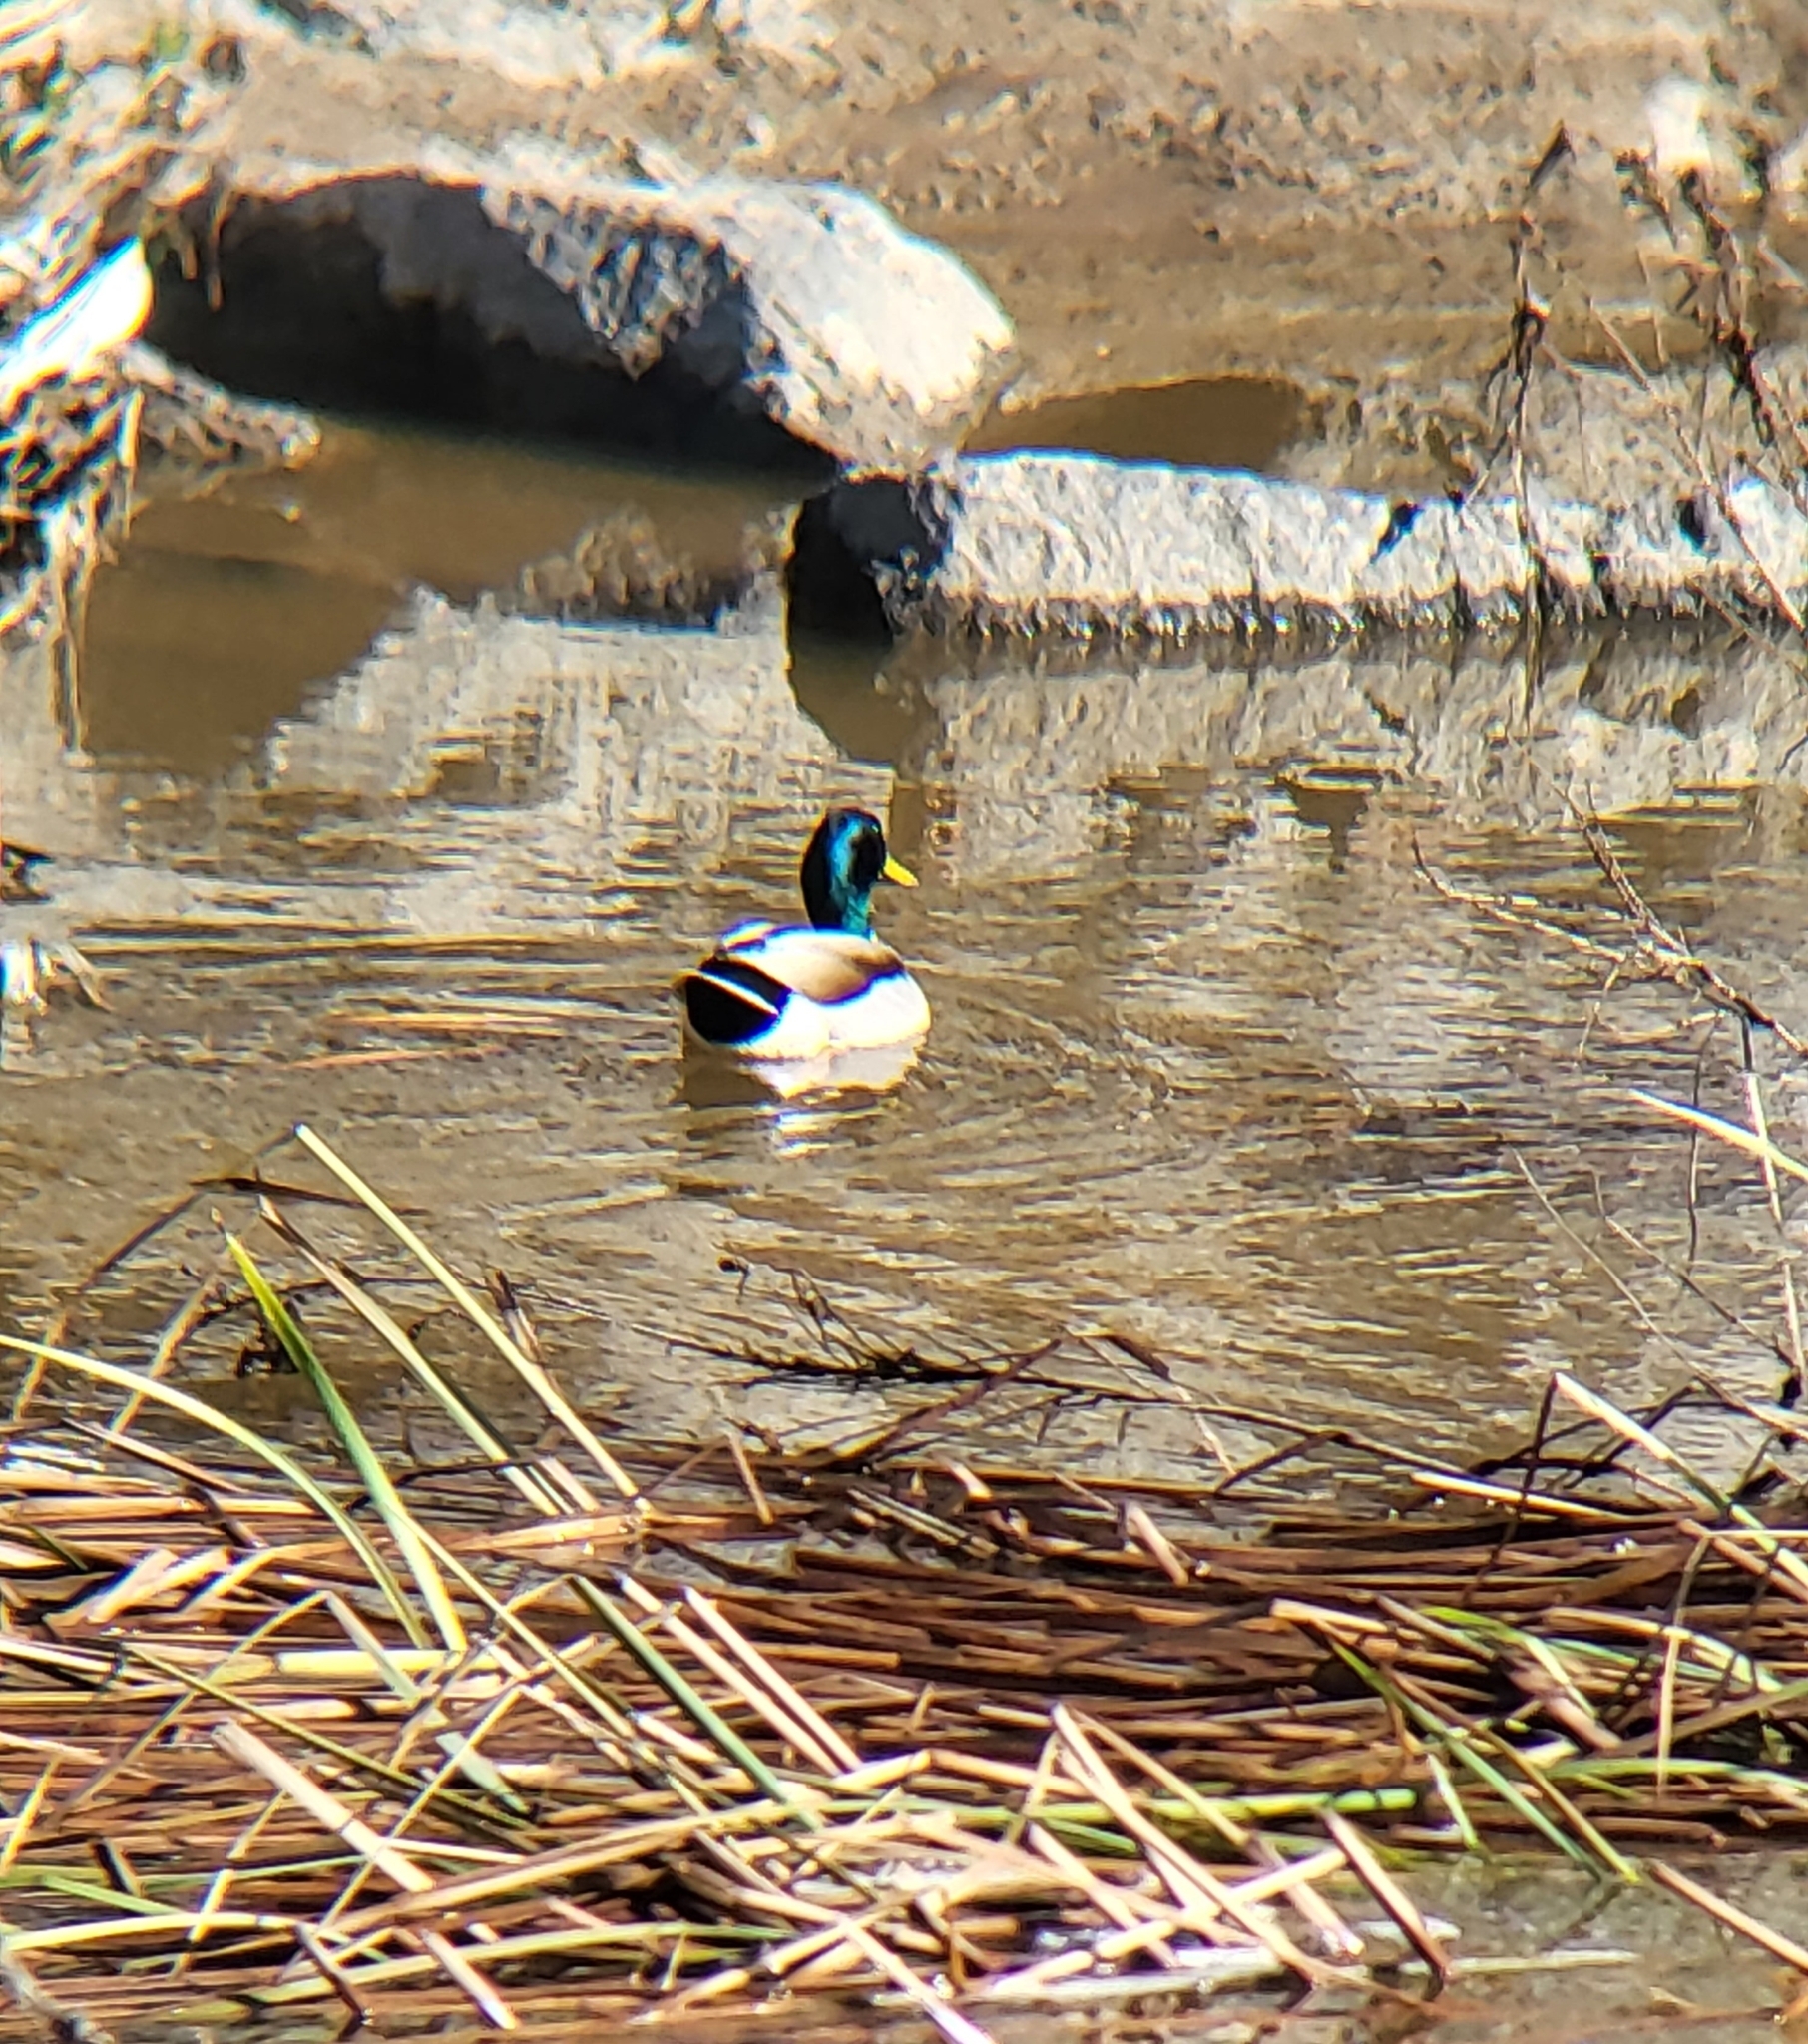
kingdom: Animalia
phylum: Chordata
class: Aves
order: Anseriformes
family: Anatidae
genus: Anas
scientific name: Anas platyrhynchos
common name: Mallard
